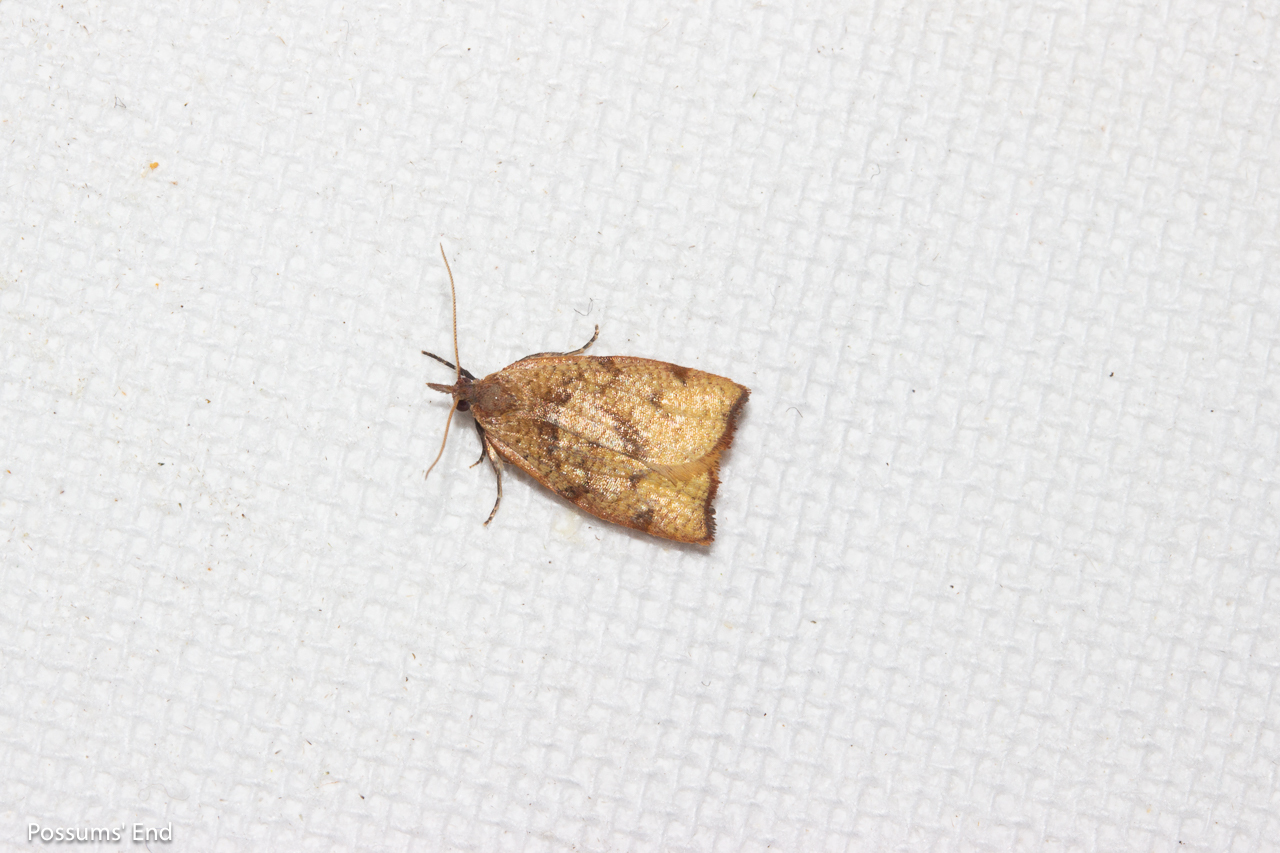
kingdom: Animalia
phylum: Arthropoda
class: Insecta
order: Lepidoptera
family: Tortricidae
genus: Apoctena
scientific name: Apoctena flavescens
